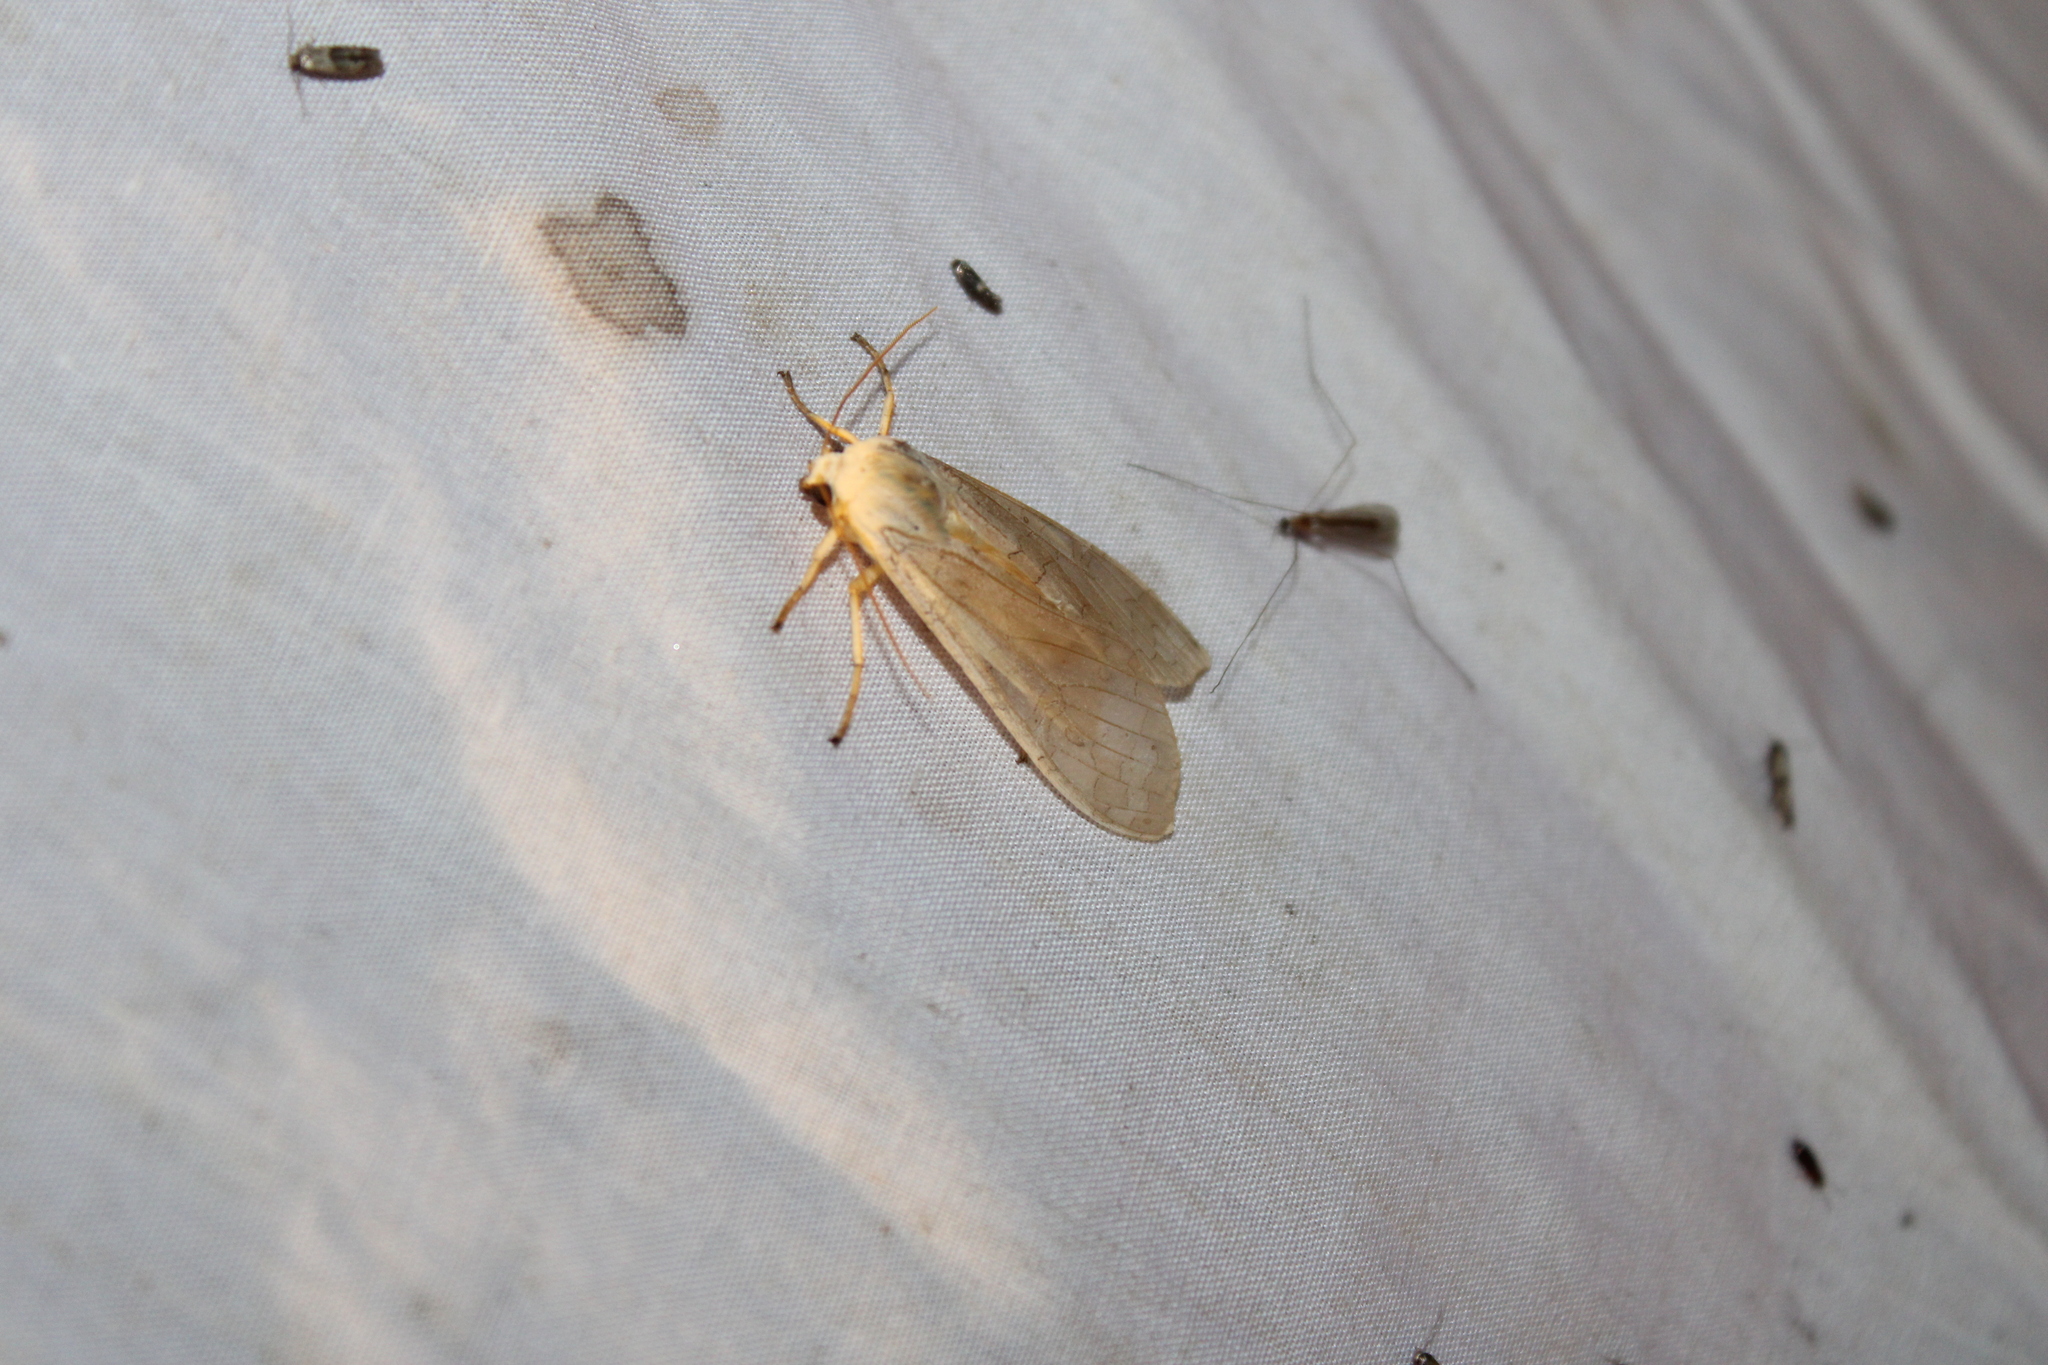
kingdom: Animalia
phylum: Arthropoda
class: Insecta
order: Lepidoptera
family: Erebidae
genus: Halysidota
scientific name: Halysidota
